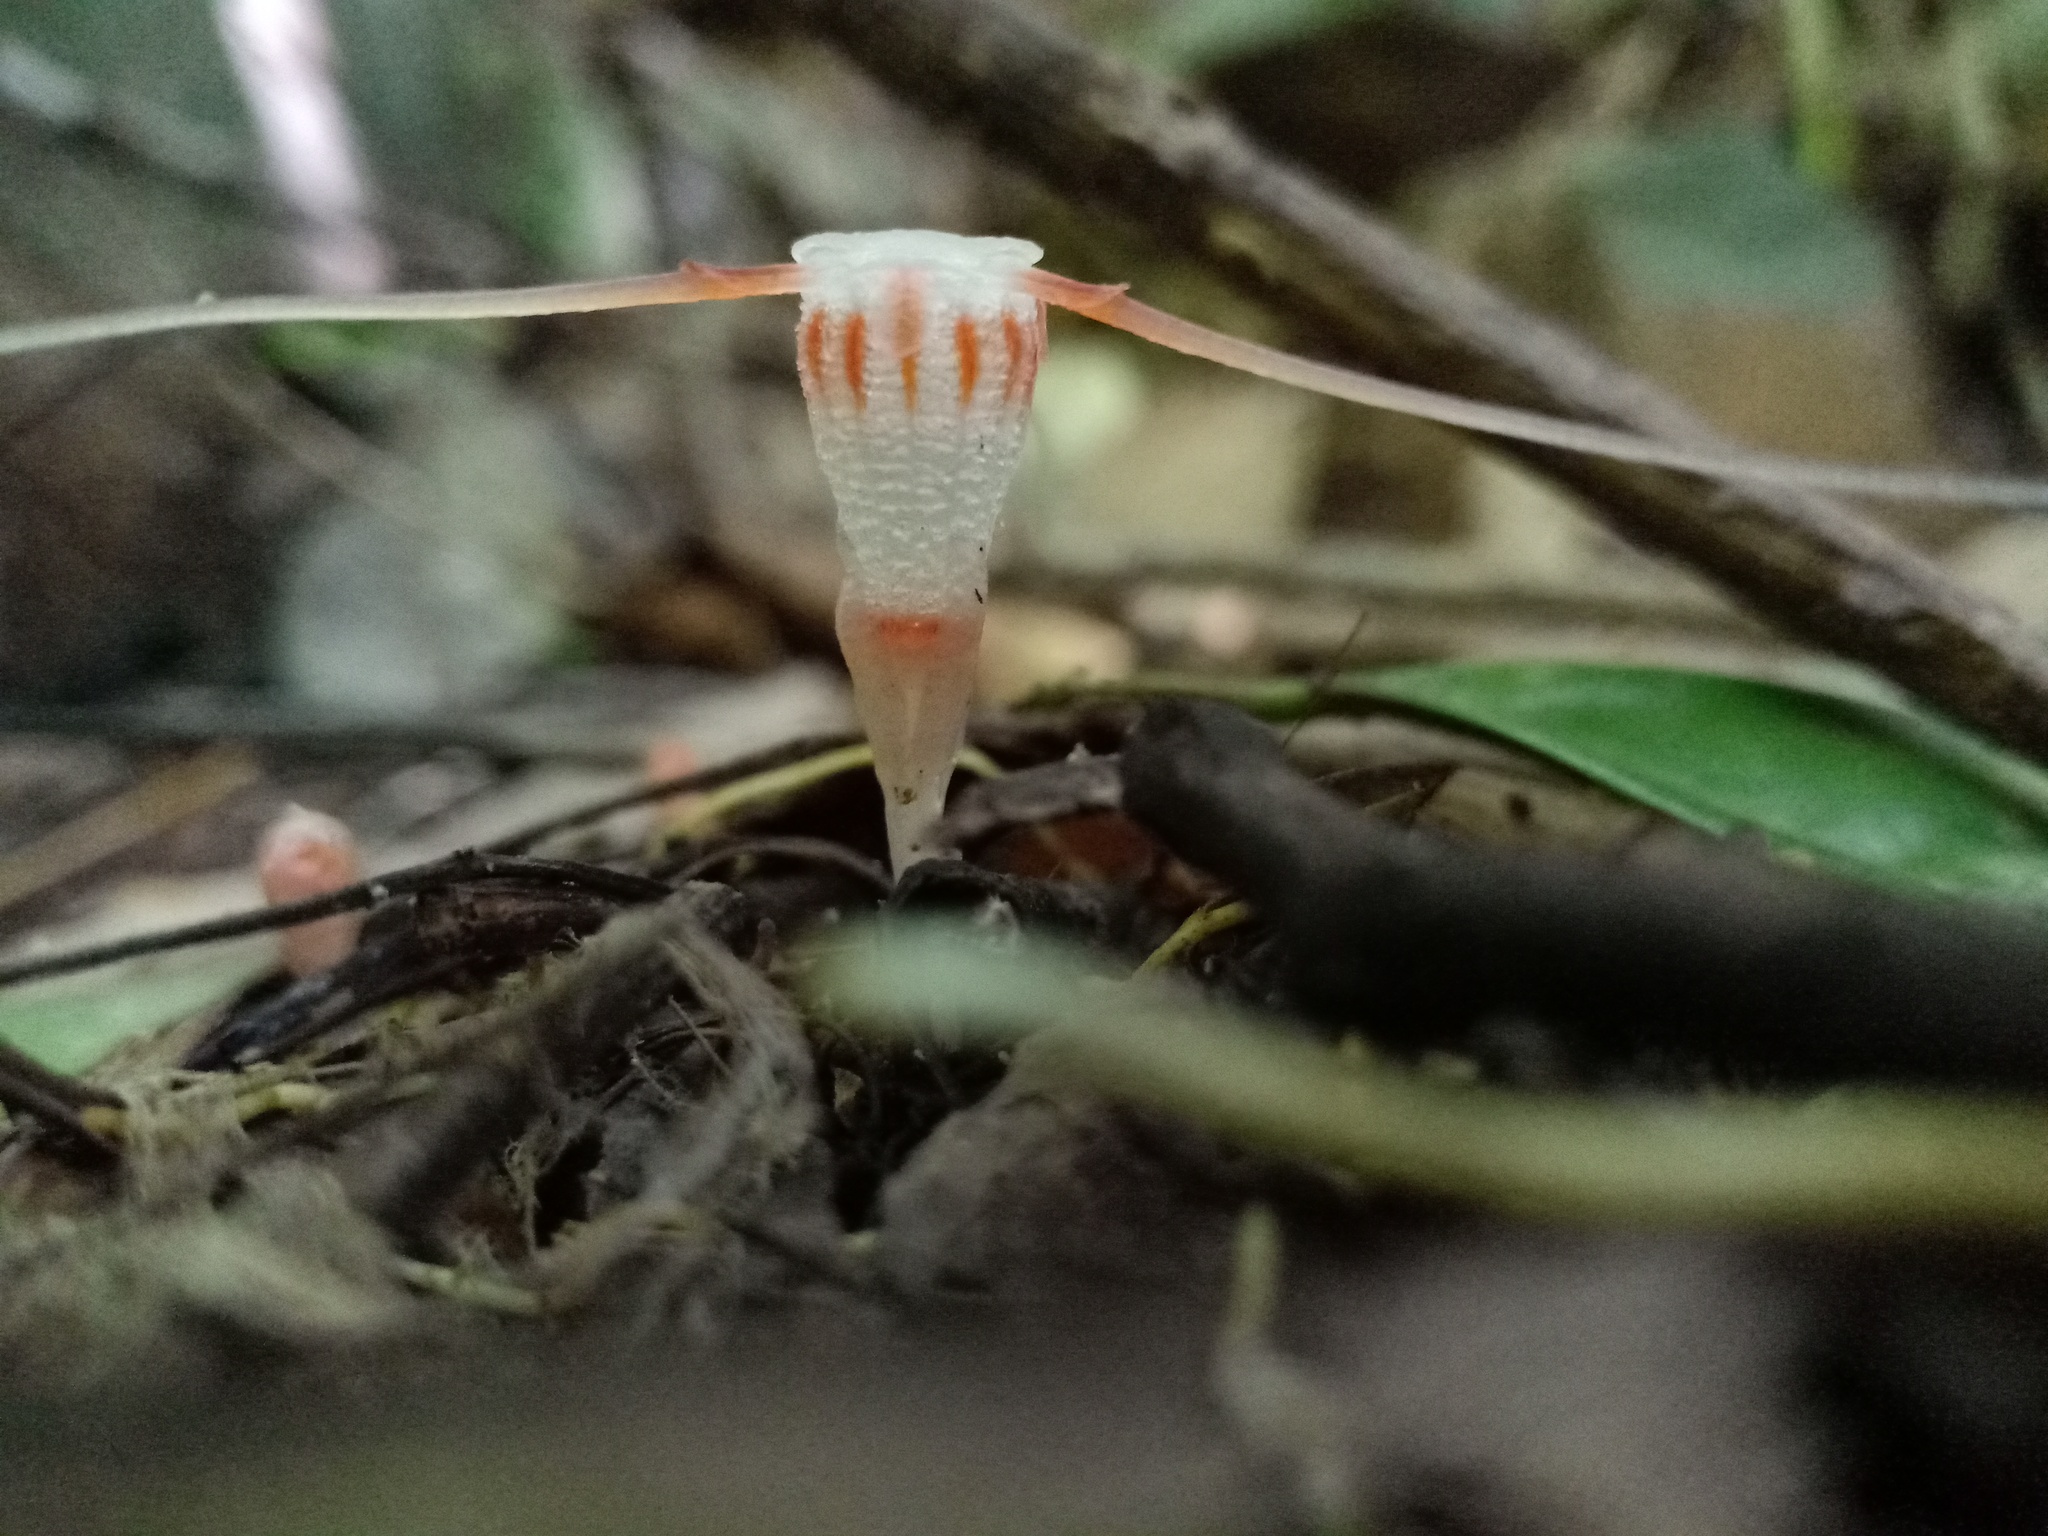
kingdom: Plantae
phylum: Tracheophyta
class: Liliopsida
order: Dioscoreales
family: Burmanniaceae
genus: Thismia
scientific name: Thismia javanica
